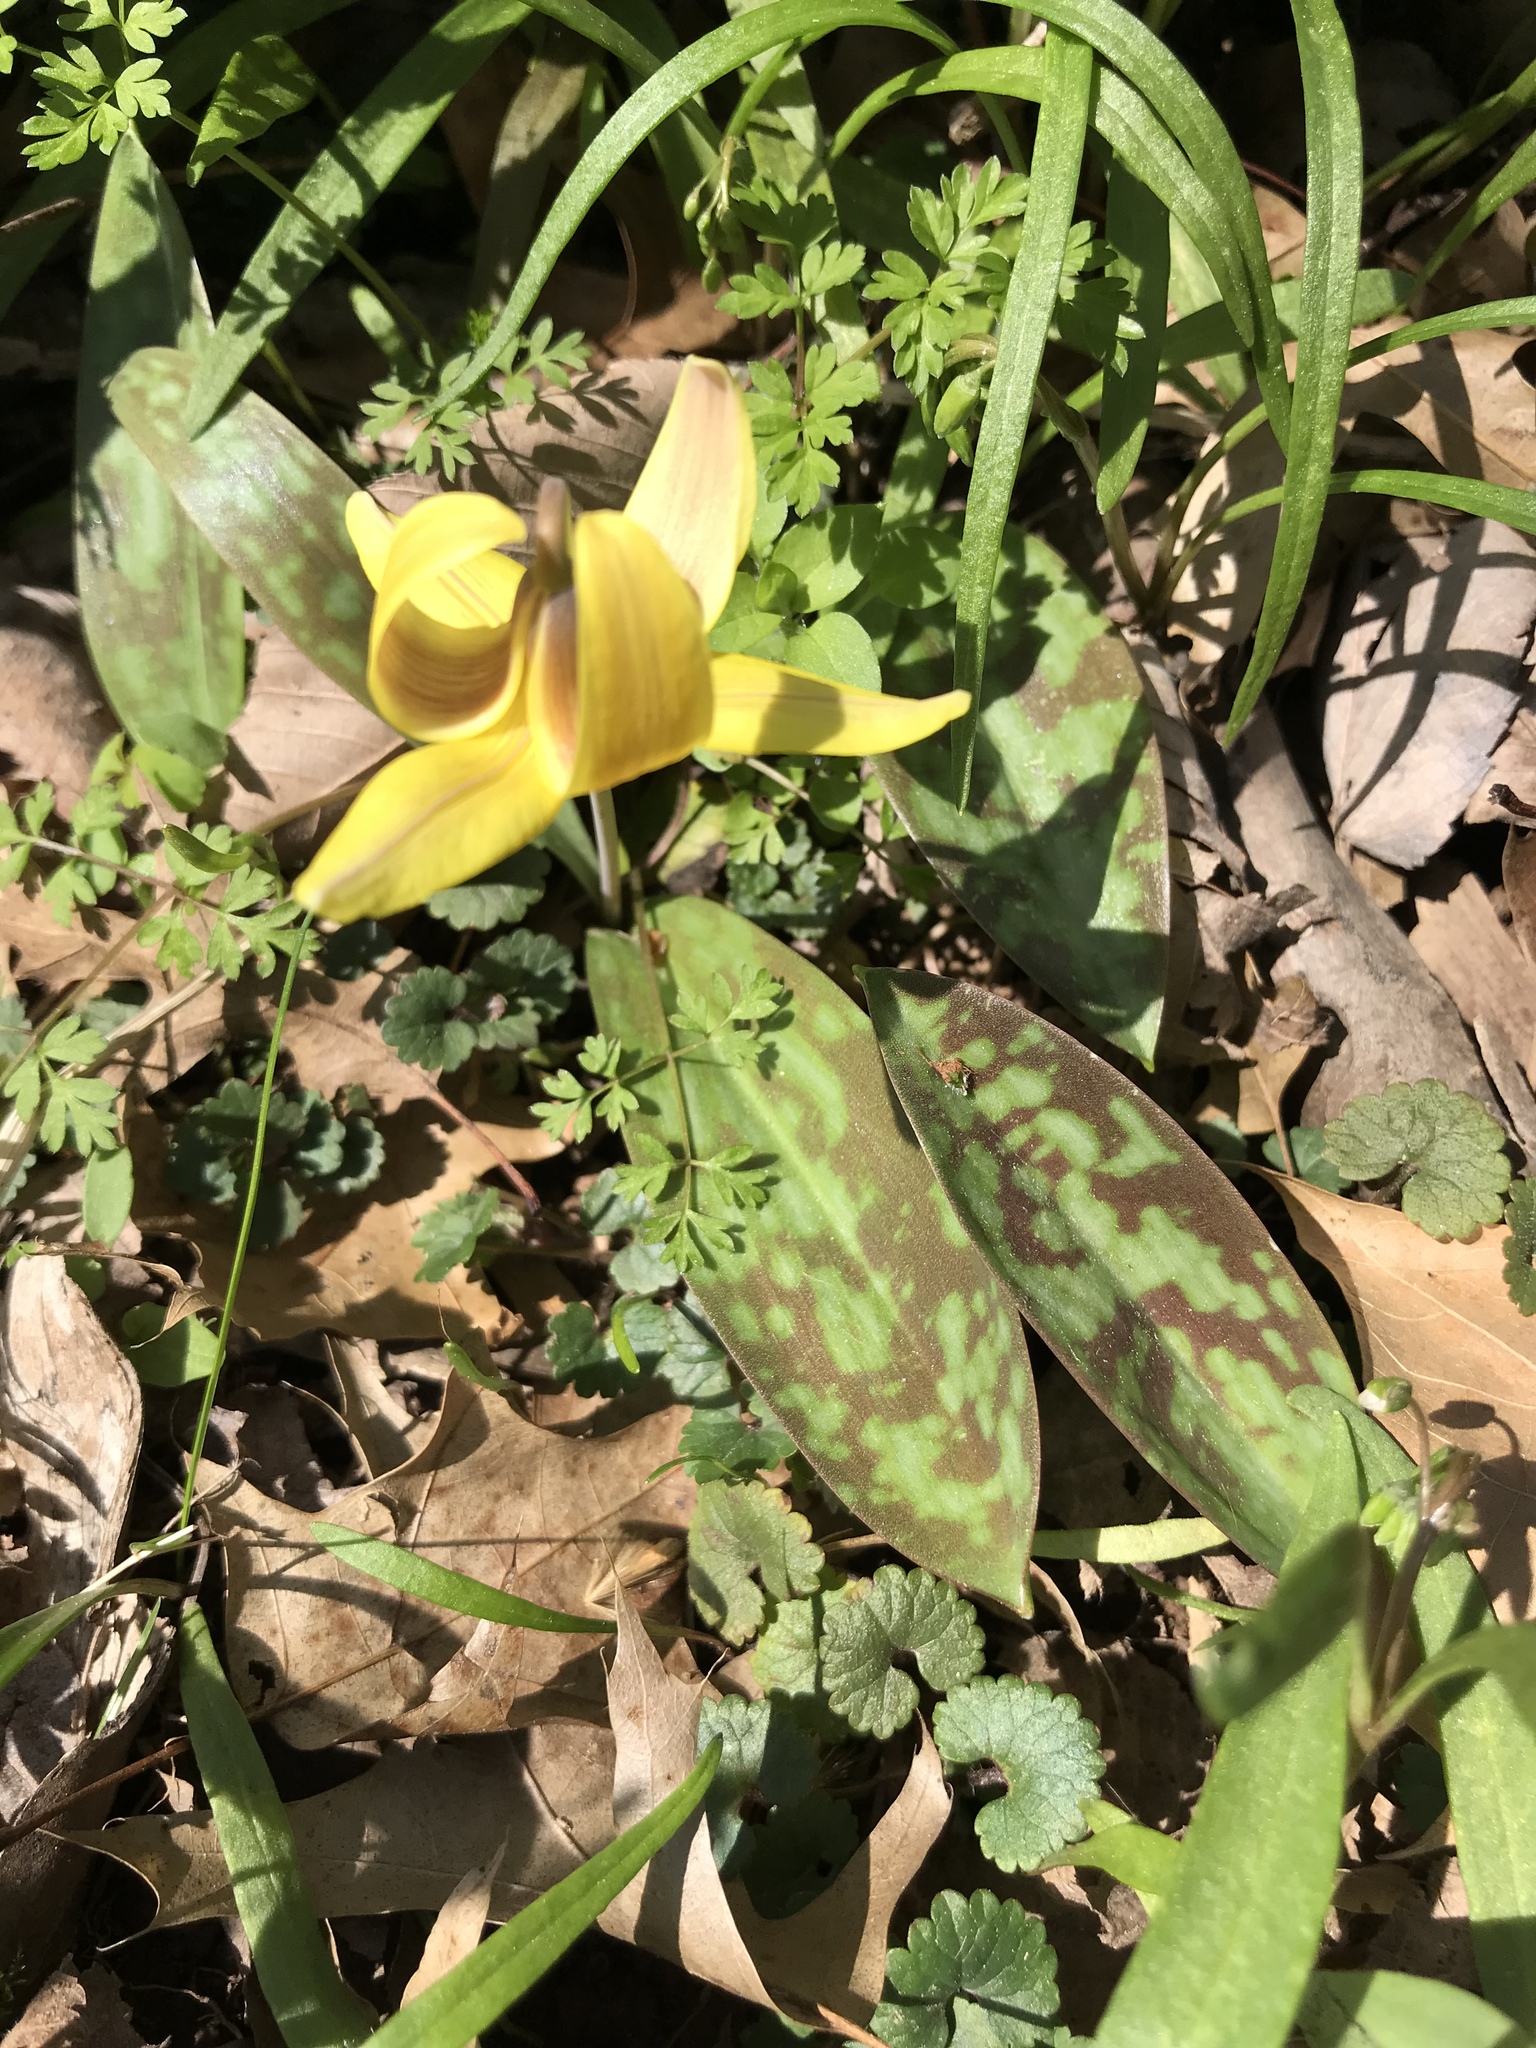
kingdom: Plantae
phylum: Tracheophyta
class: Liliopsida
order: Liliales
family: Liliaceae
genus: Erythronium
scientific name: Erythronium americanum
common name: Yellow adder's-tongue
